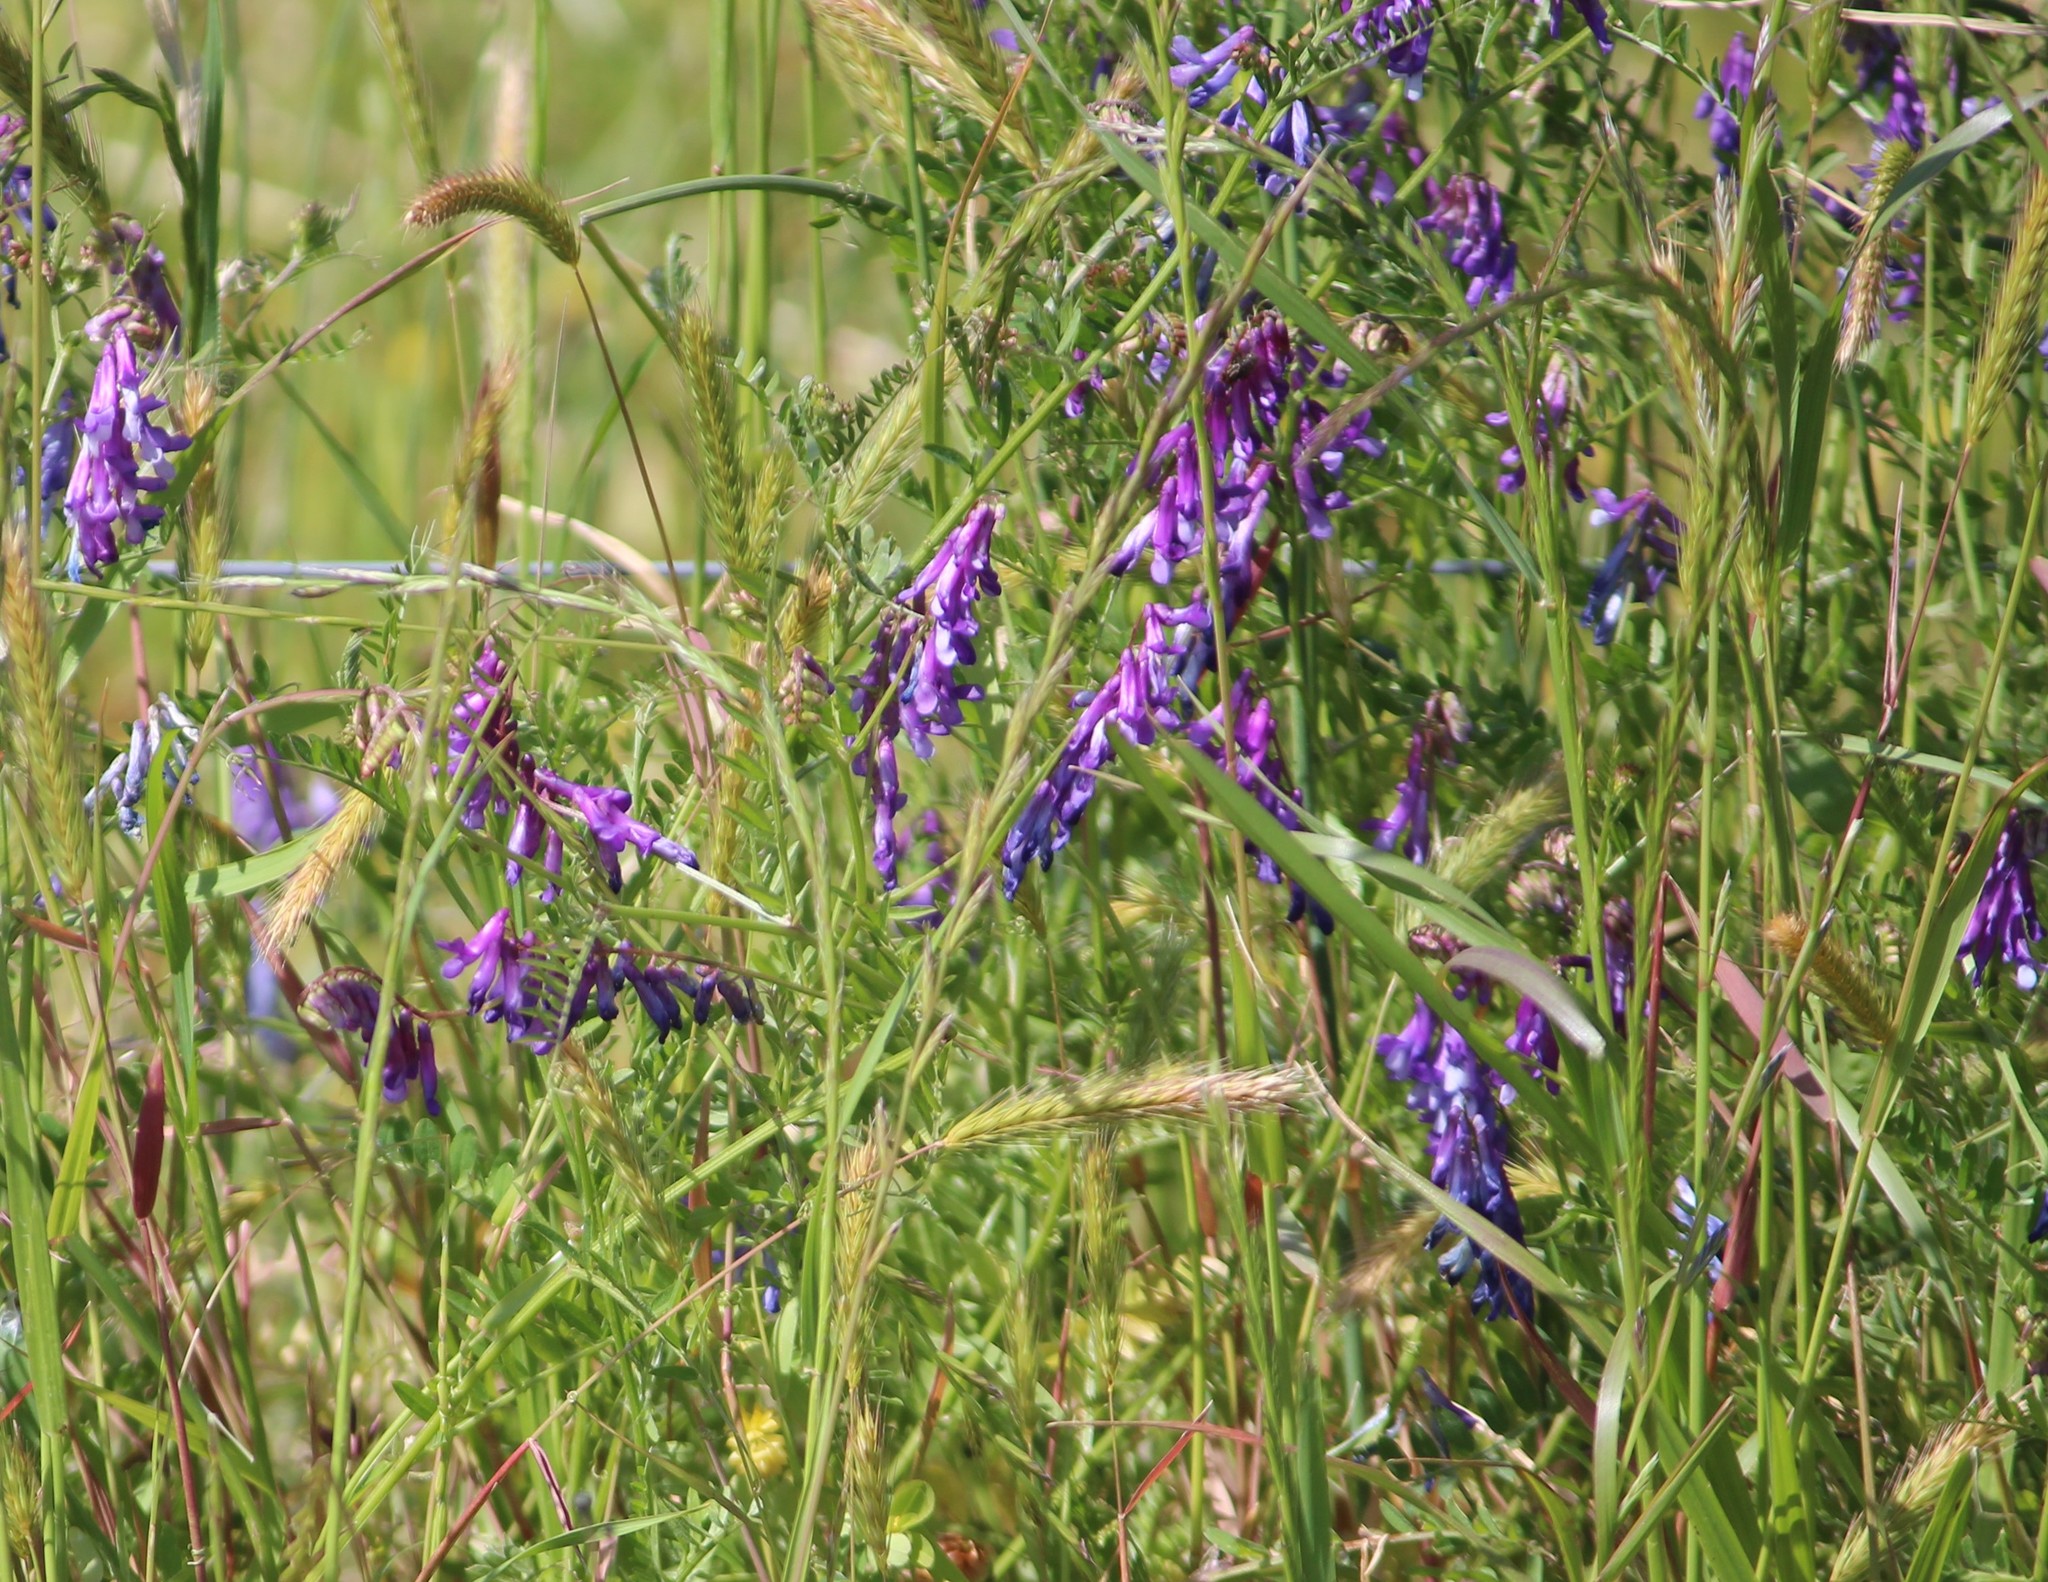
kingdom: Plantae
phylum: Tracheophyta
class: Magnoliopsida
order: Fabales
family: Fabaceae
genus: Vicia
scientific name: Vicia villosa
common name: Fodder vetch
